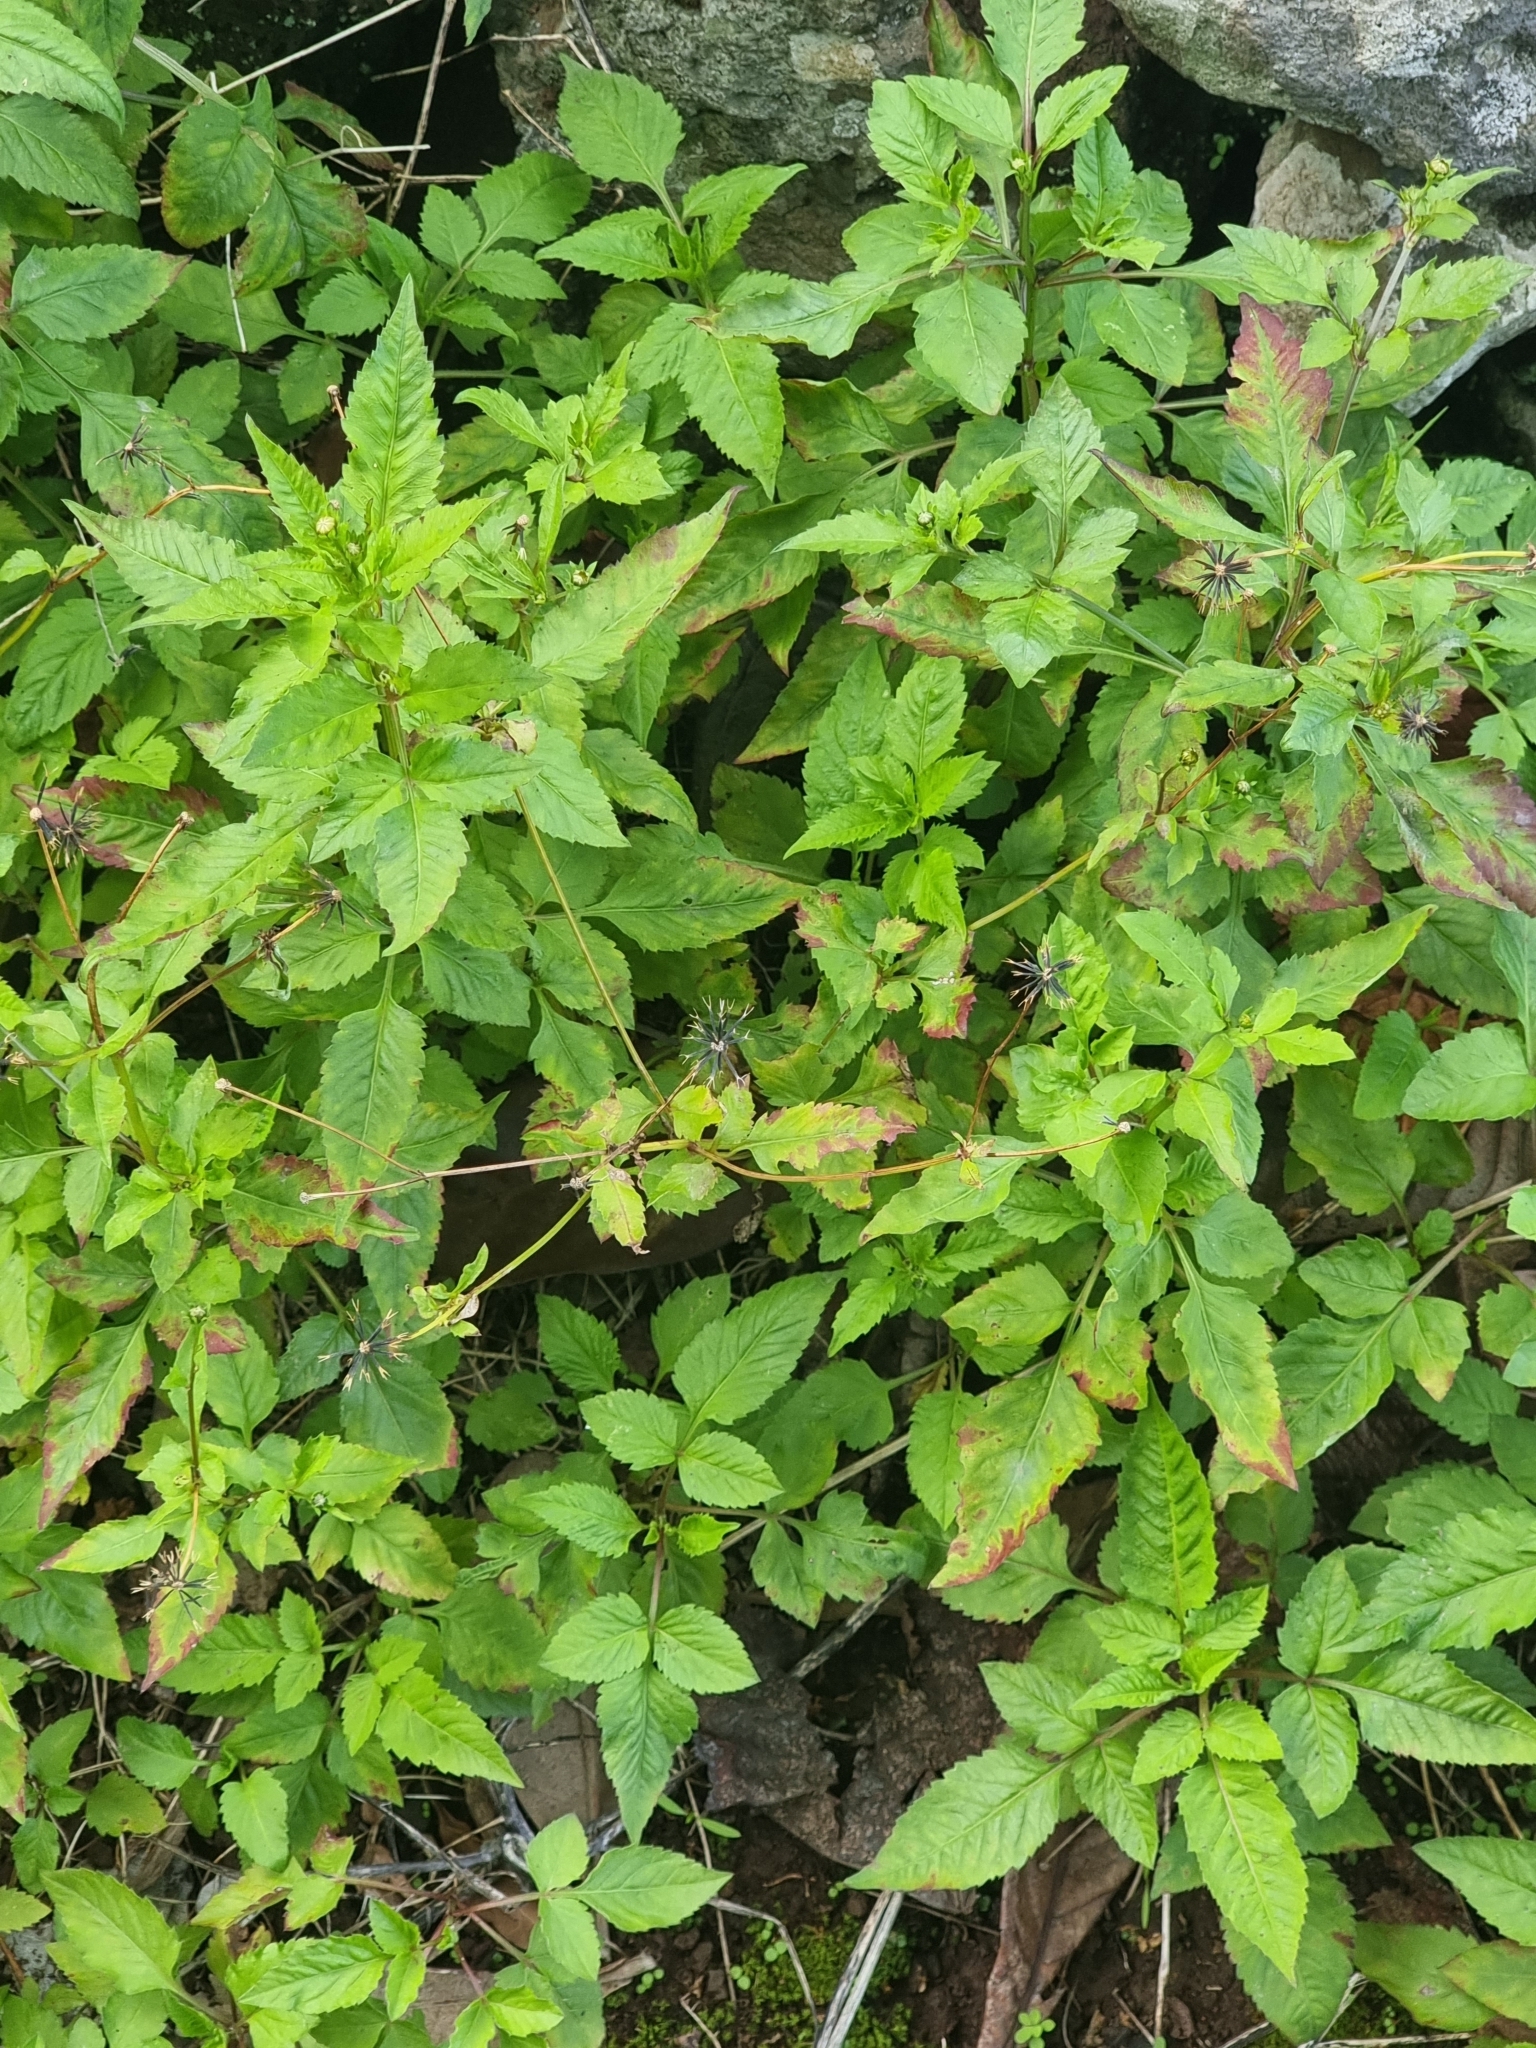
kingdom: Plantae
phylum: Tracheophyta
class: Magnoliopsida
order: Asterales
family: Asteraceae
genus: Bidens
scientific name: Bidens pilosa
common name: Black-jack
